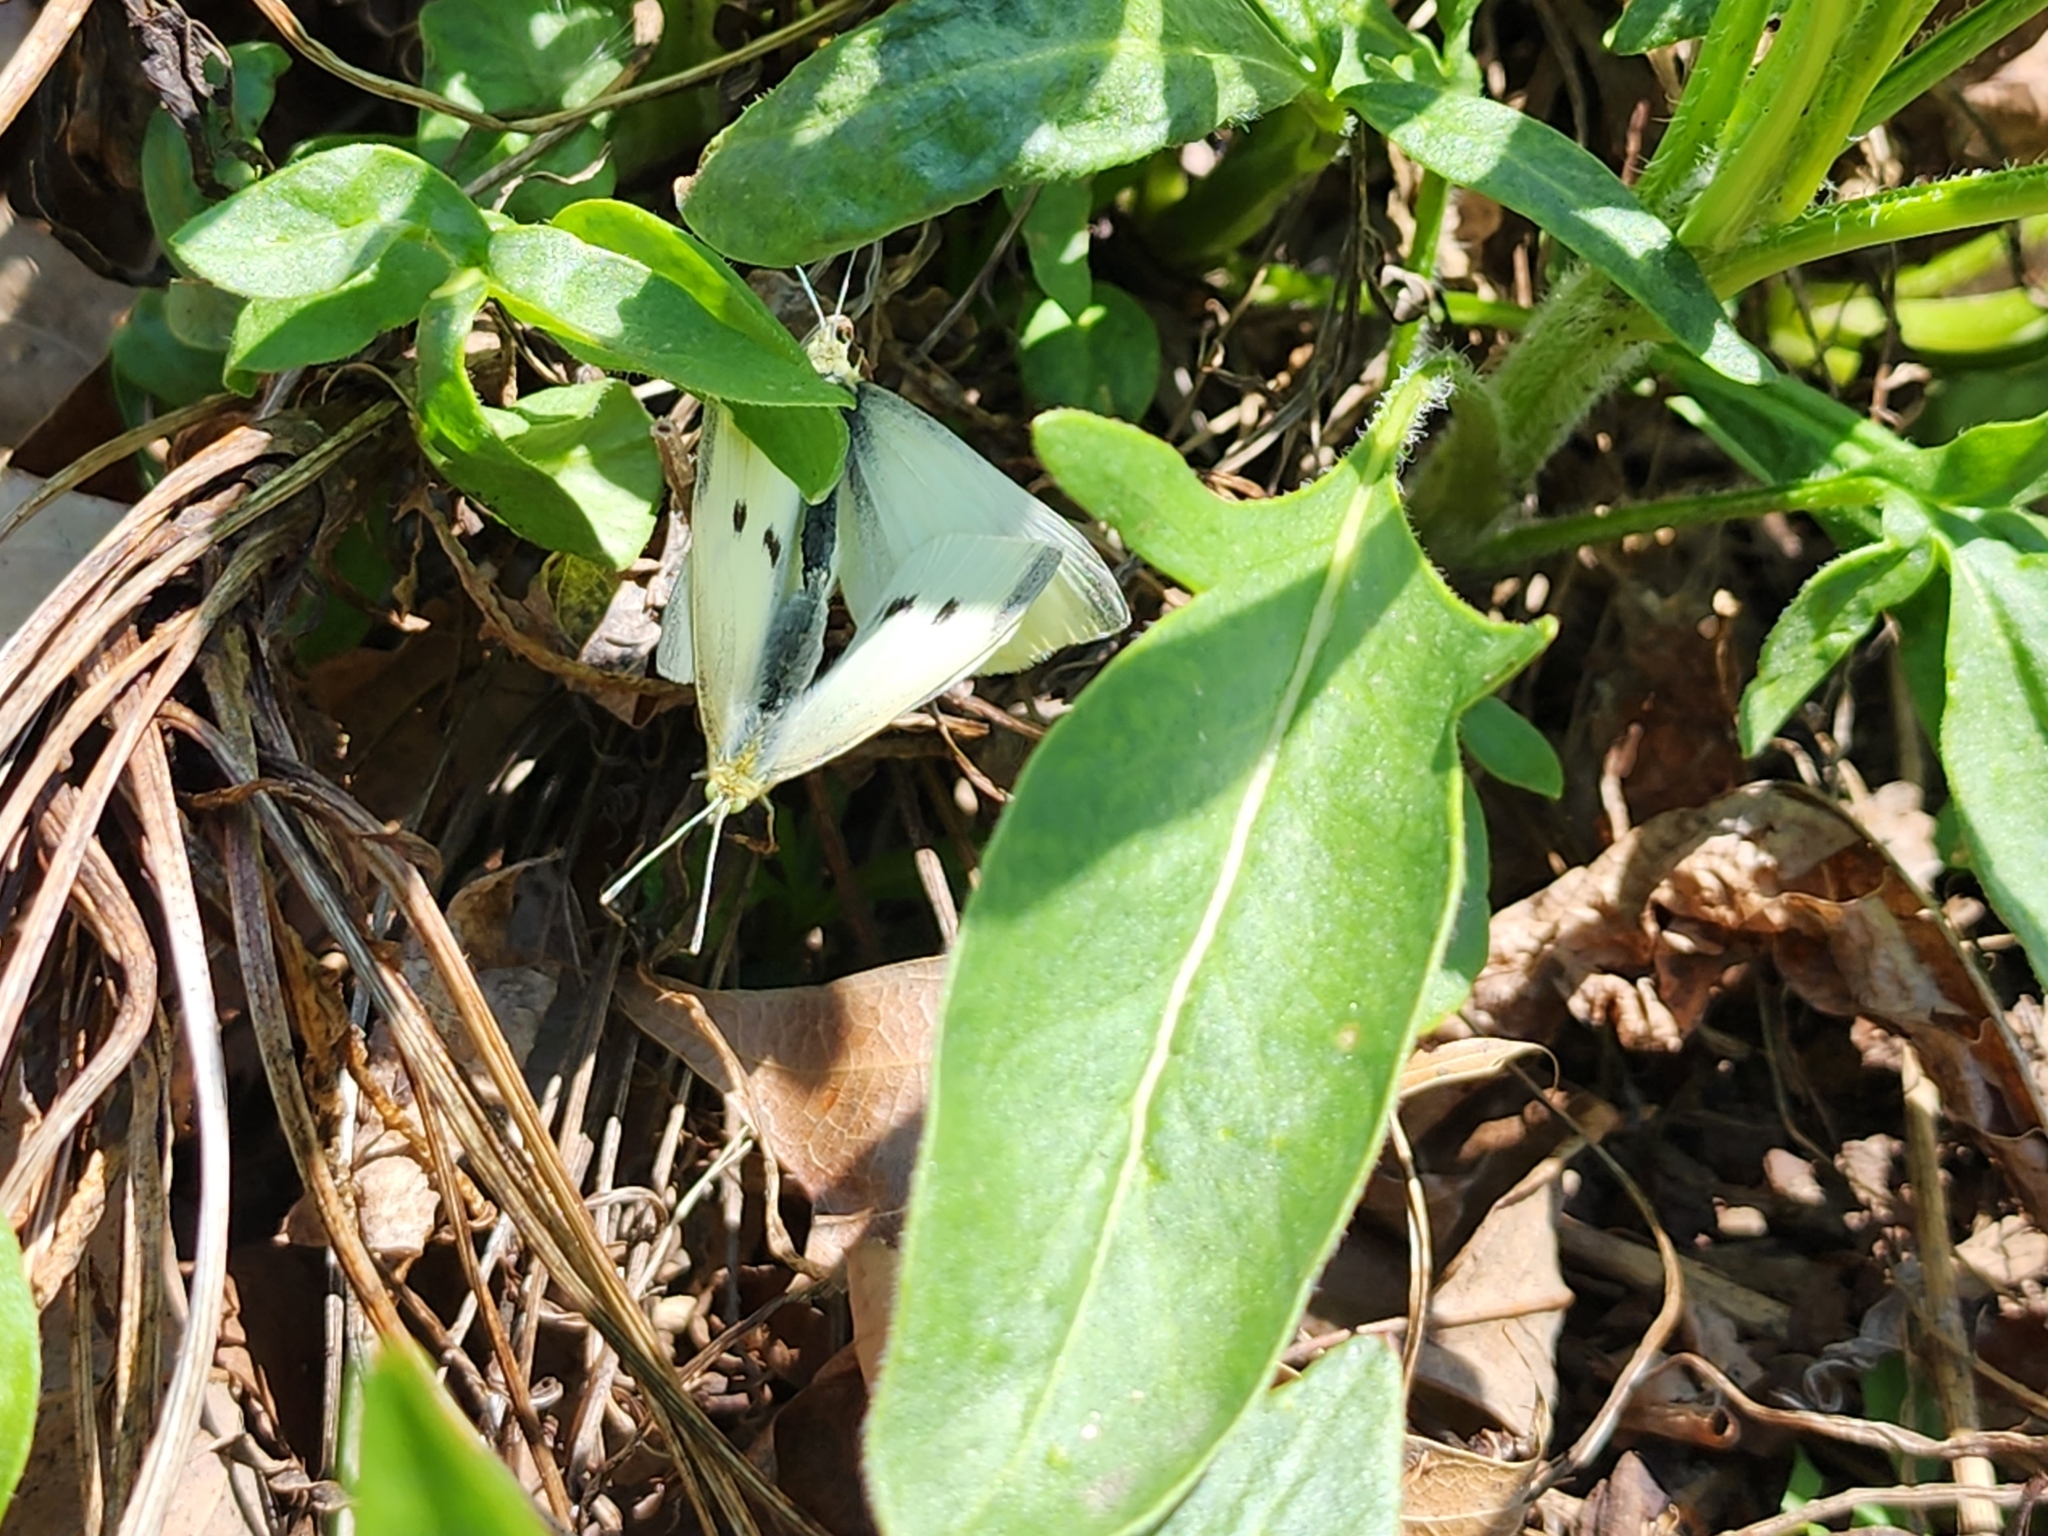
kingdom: Animalia
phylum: Arthropoda
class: Insecta
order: Lepidoptera
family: Pieridae
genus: Pieris
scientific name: Pieris rapae
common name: Small white
